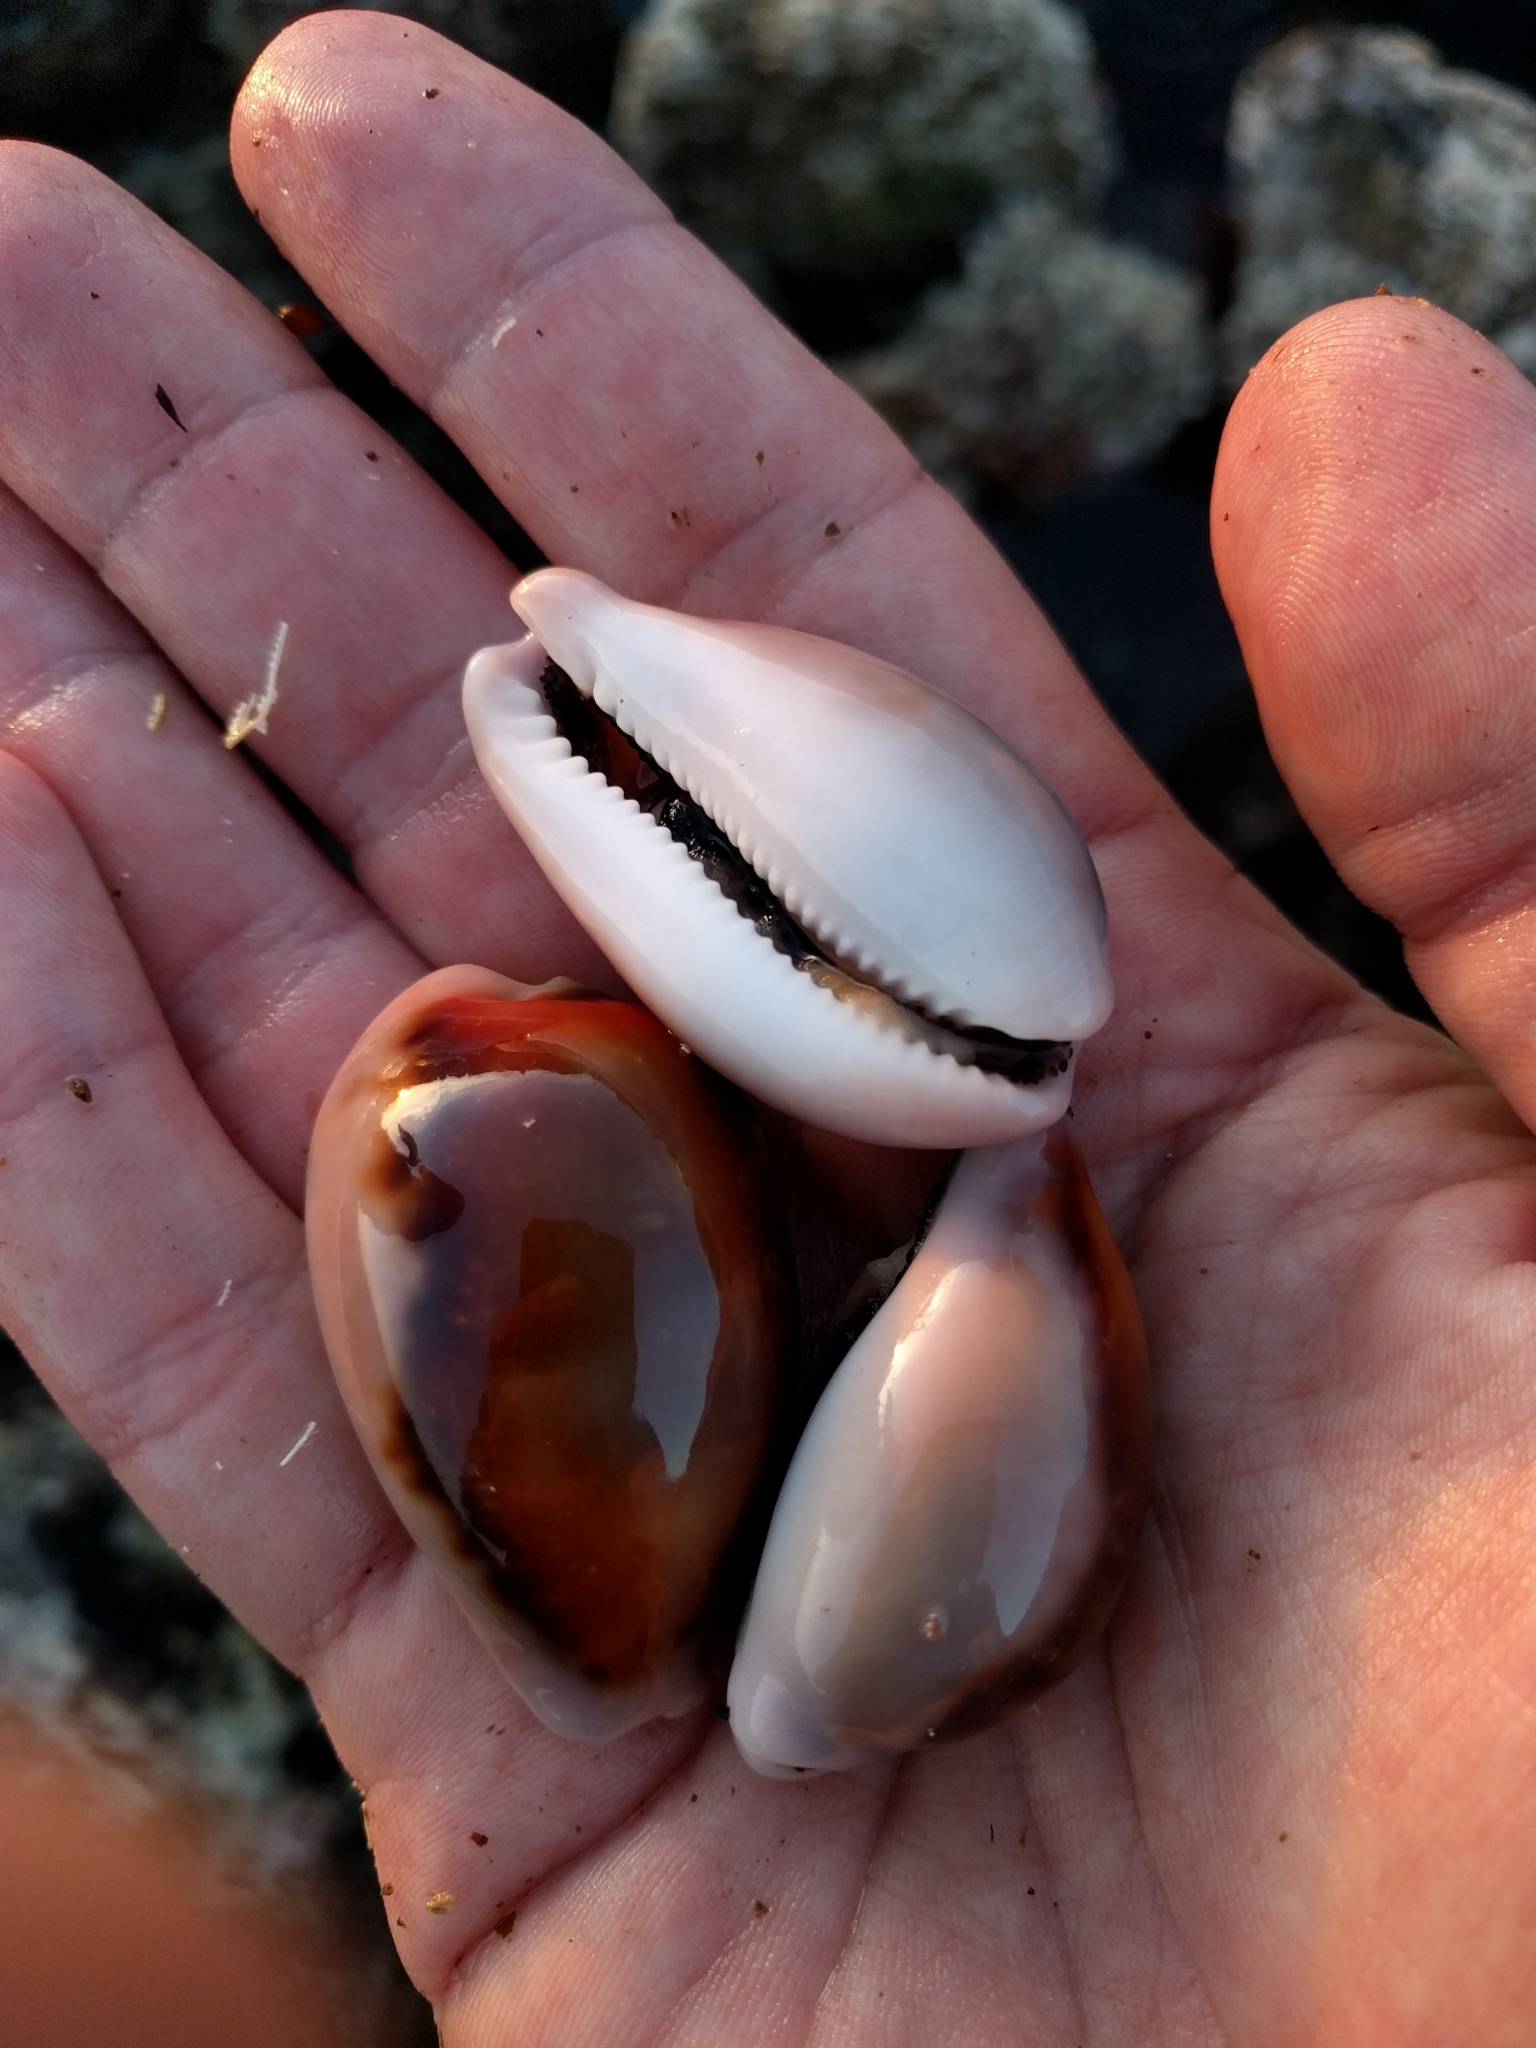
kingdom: Animalia
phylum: Mollusca
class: Gastropoda
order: Littorinimorpha
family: Cypraeidae
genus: Neobernaya
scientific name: Neobernaya spadicea
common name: Chestnut cowrie
